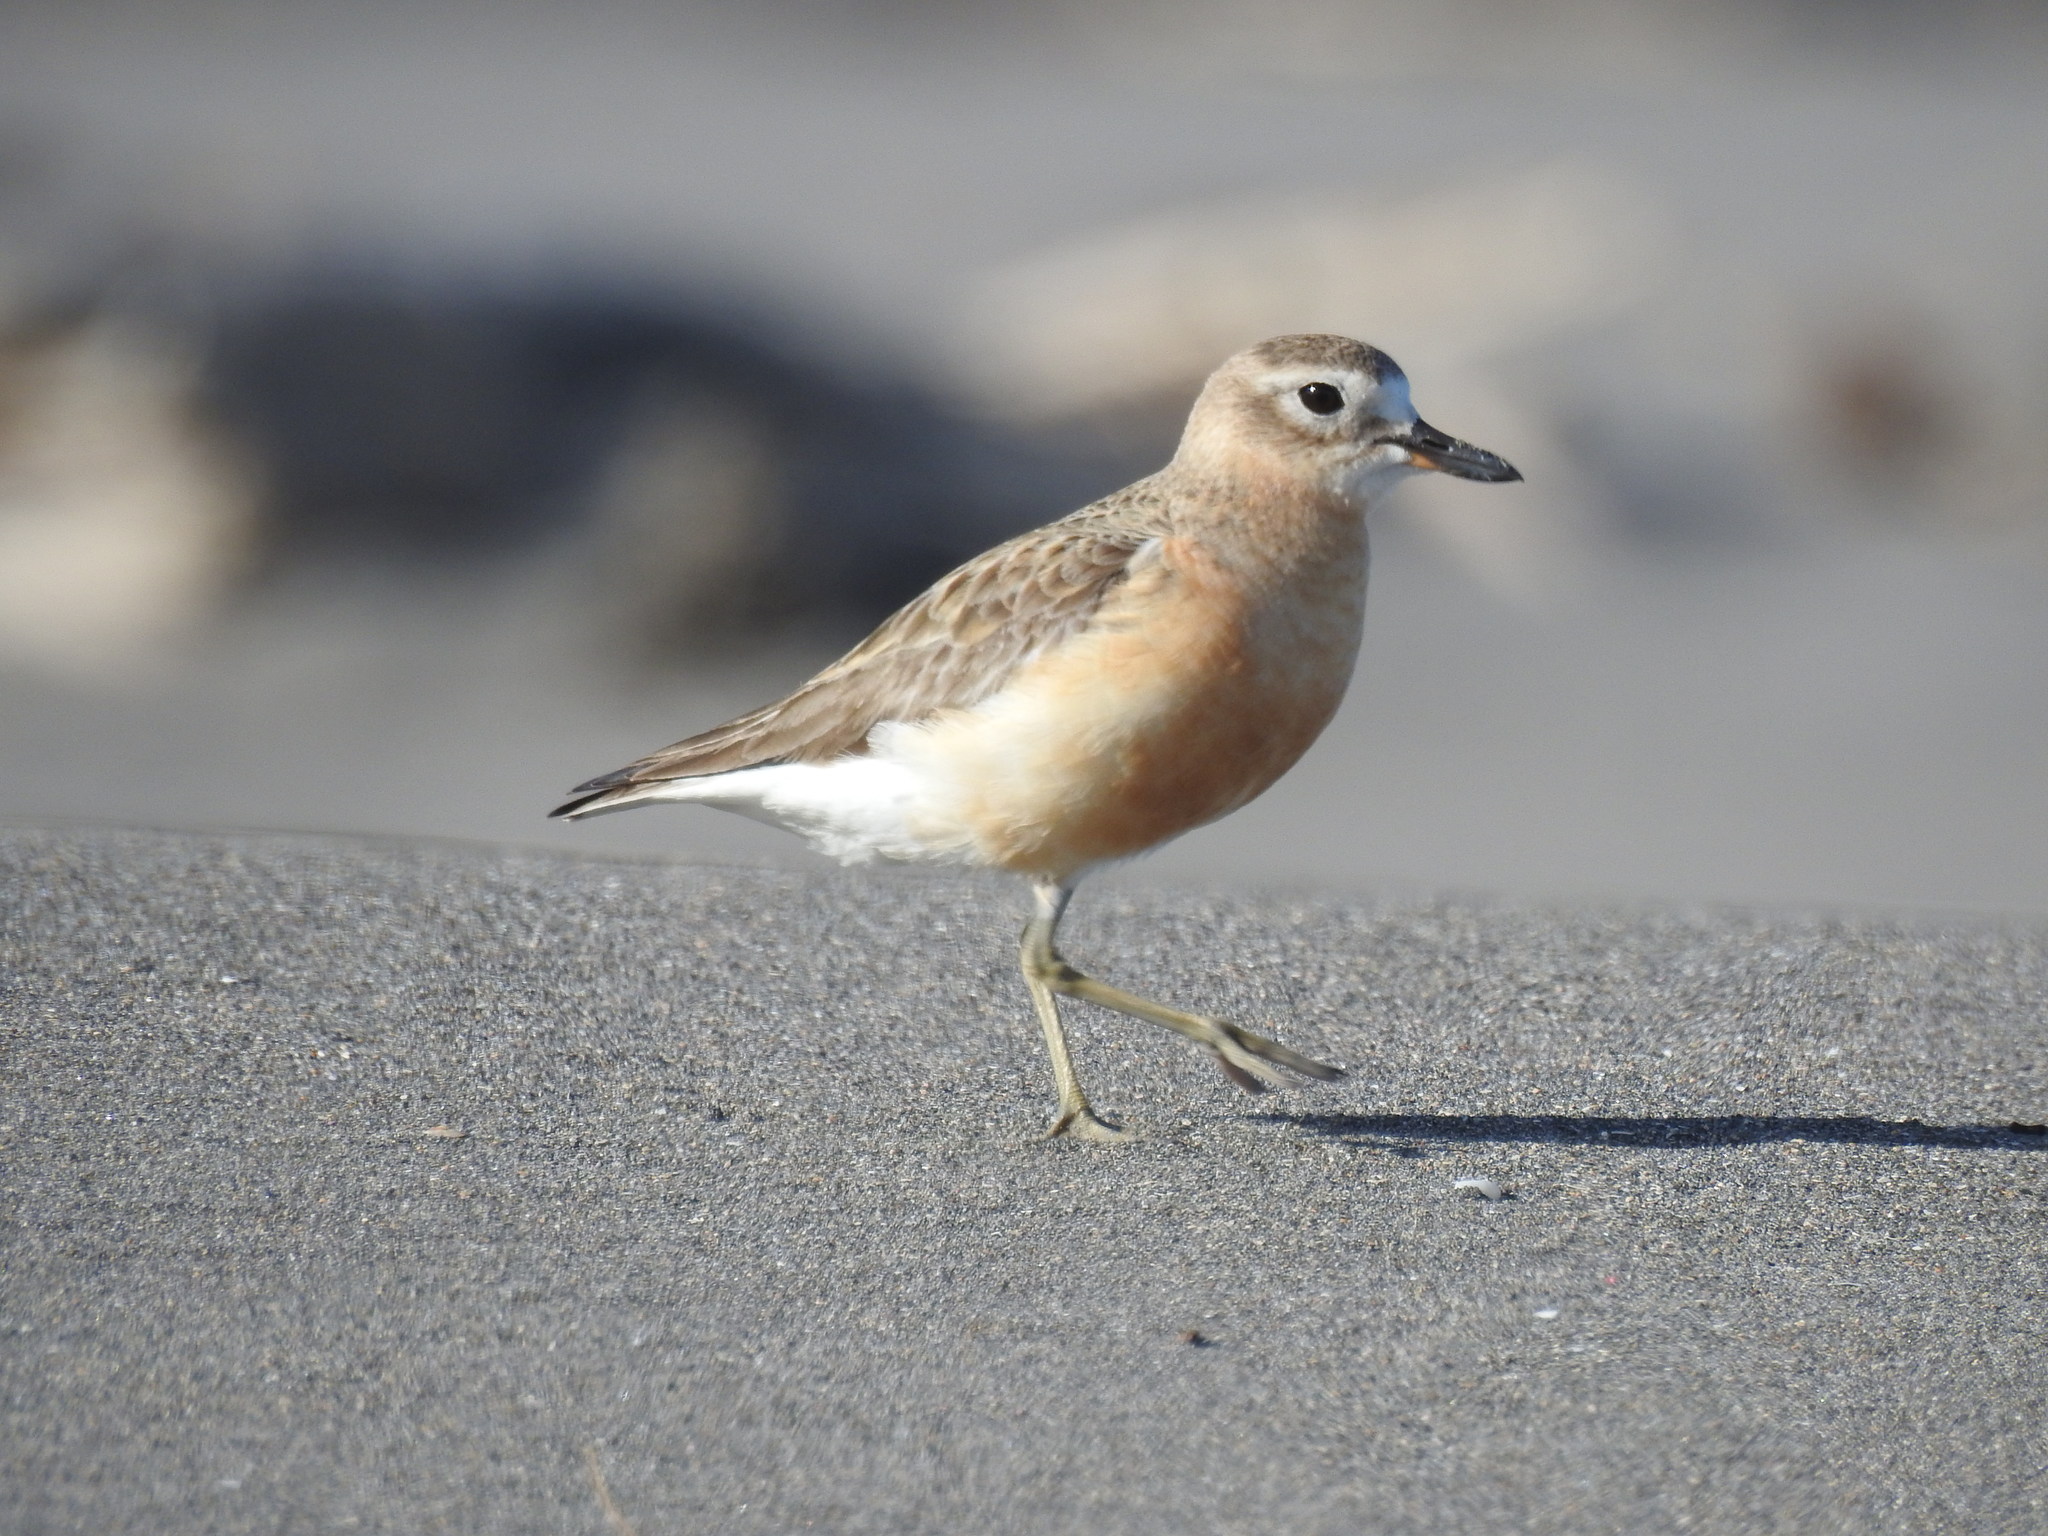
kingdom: Animalia
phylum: Chordata
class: Aves
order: Charadriiformes
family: Charadriidae
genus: Anarhynchus
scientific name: Anarhynchus
